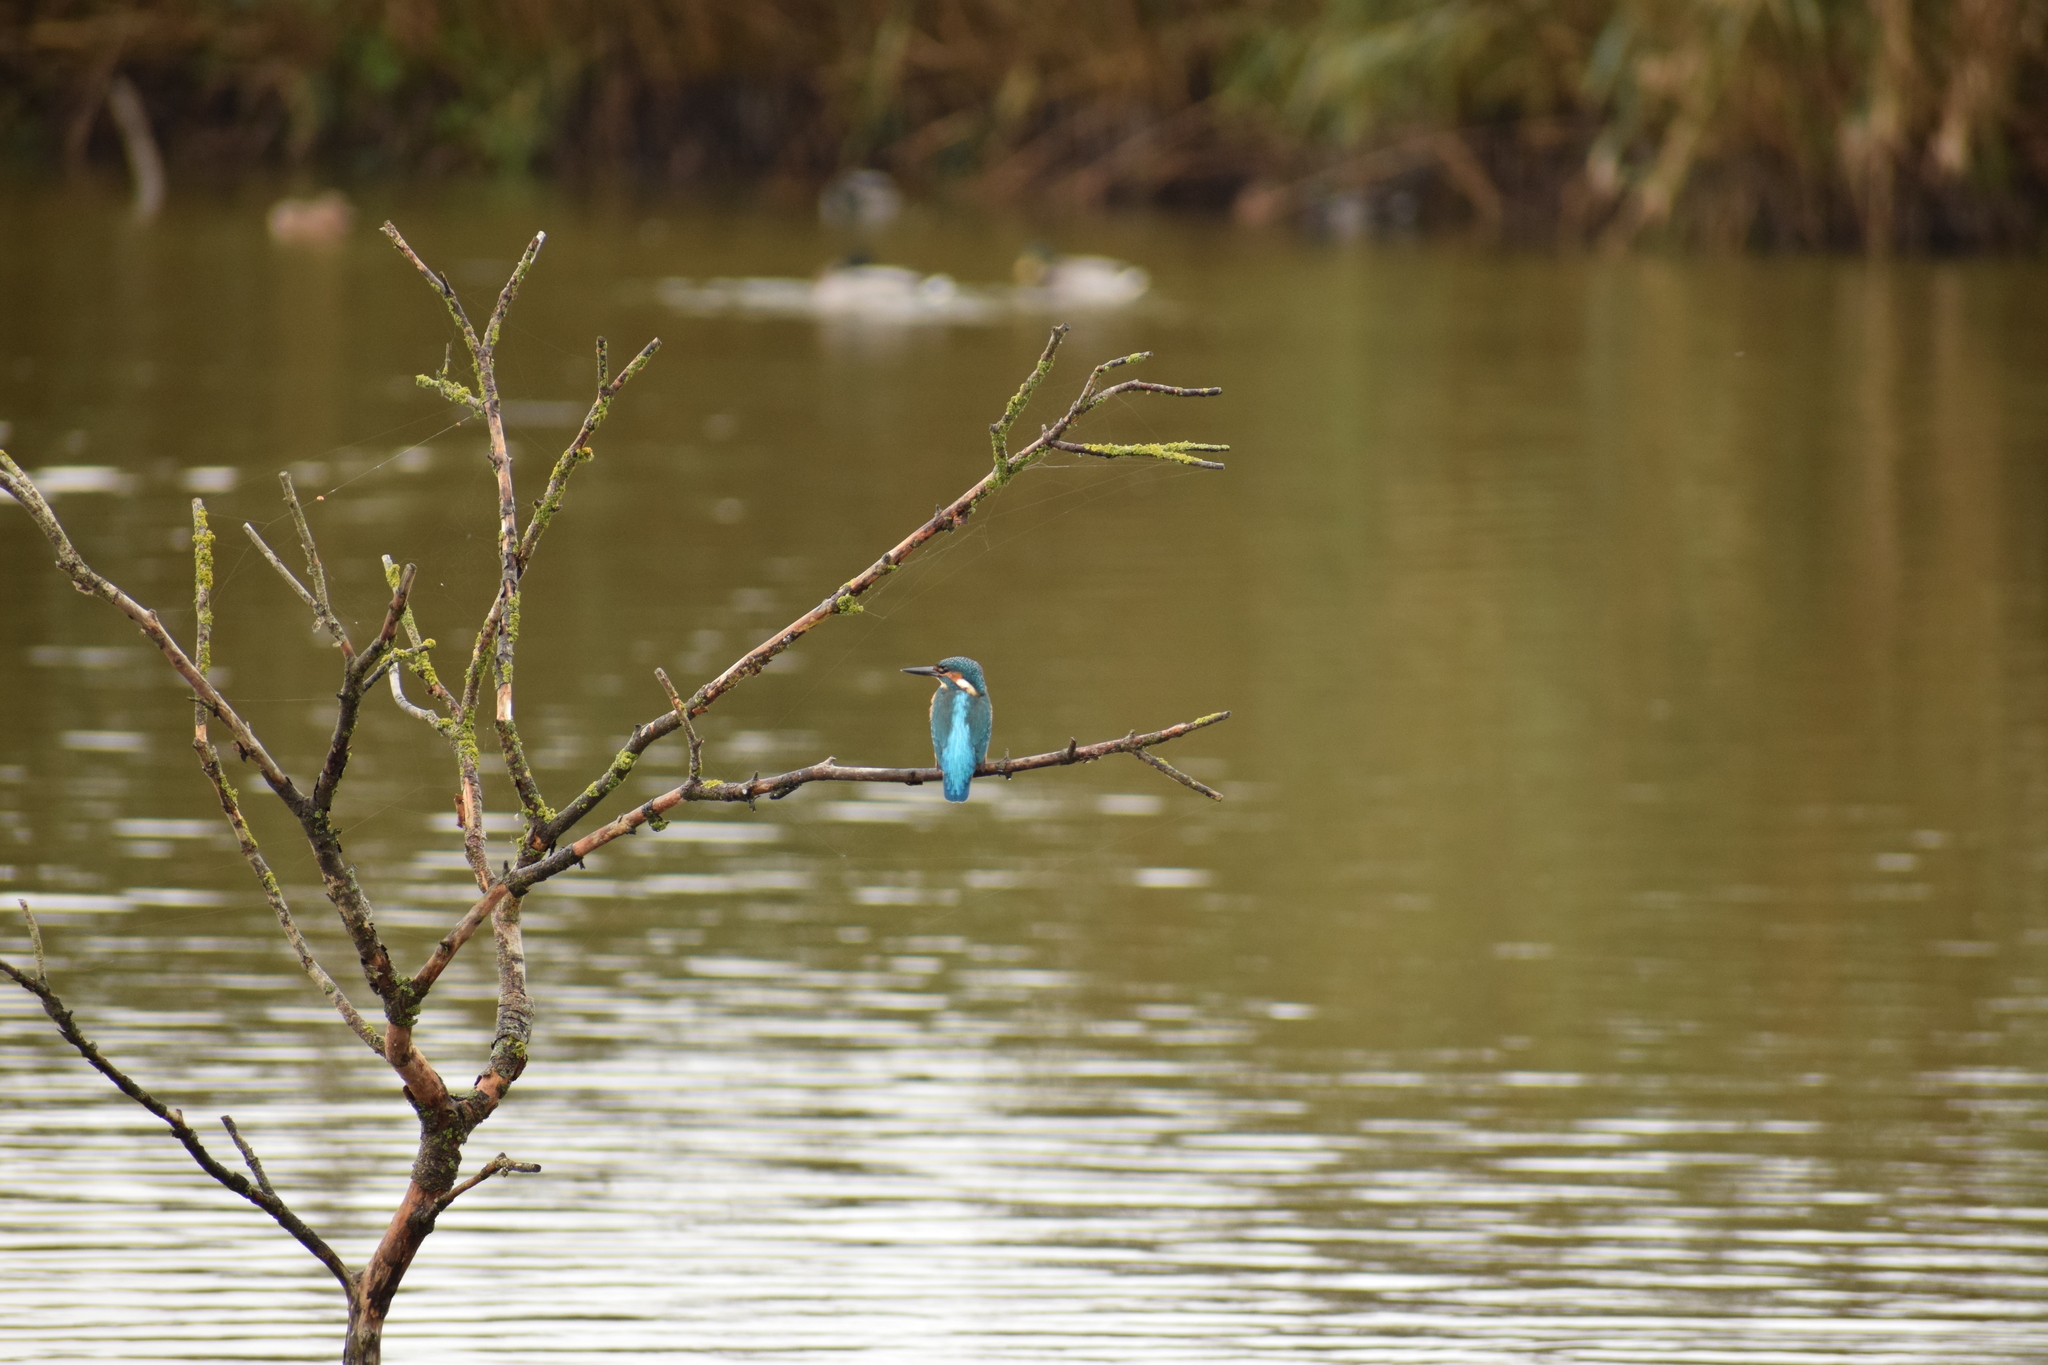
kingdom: Animalia
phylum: Chordata
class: Aves
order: Coraciiformes
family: Alcedinidae
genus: Alcedo
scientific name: Alcedo atthis
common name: Common kingfisher
